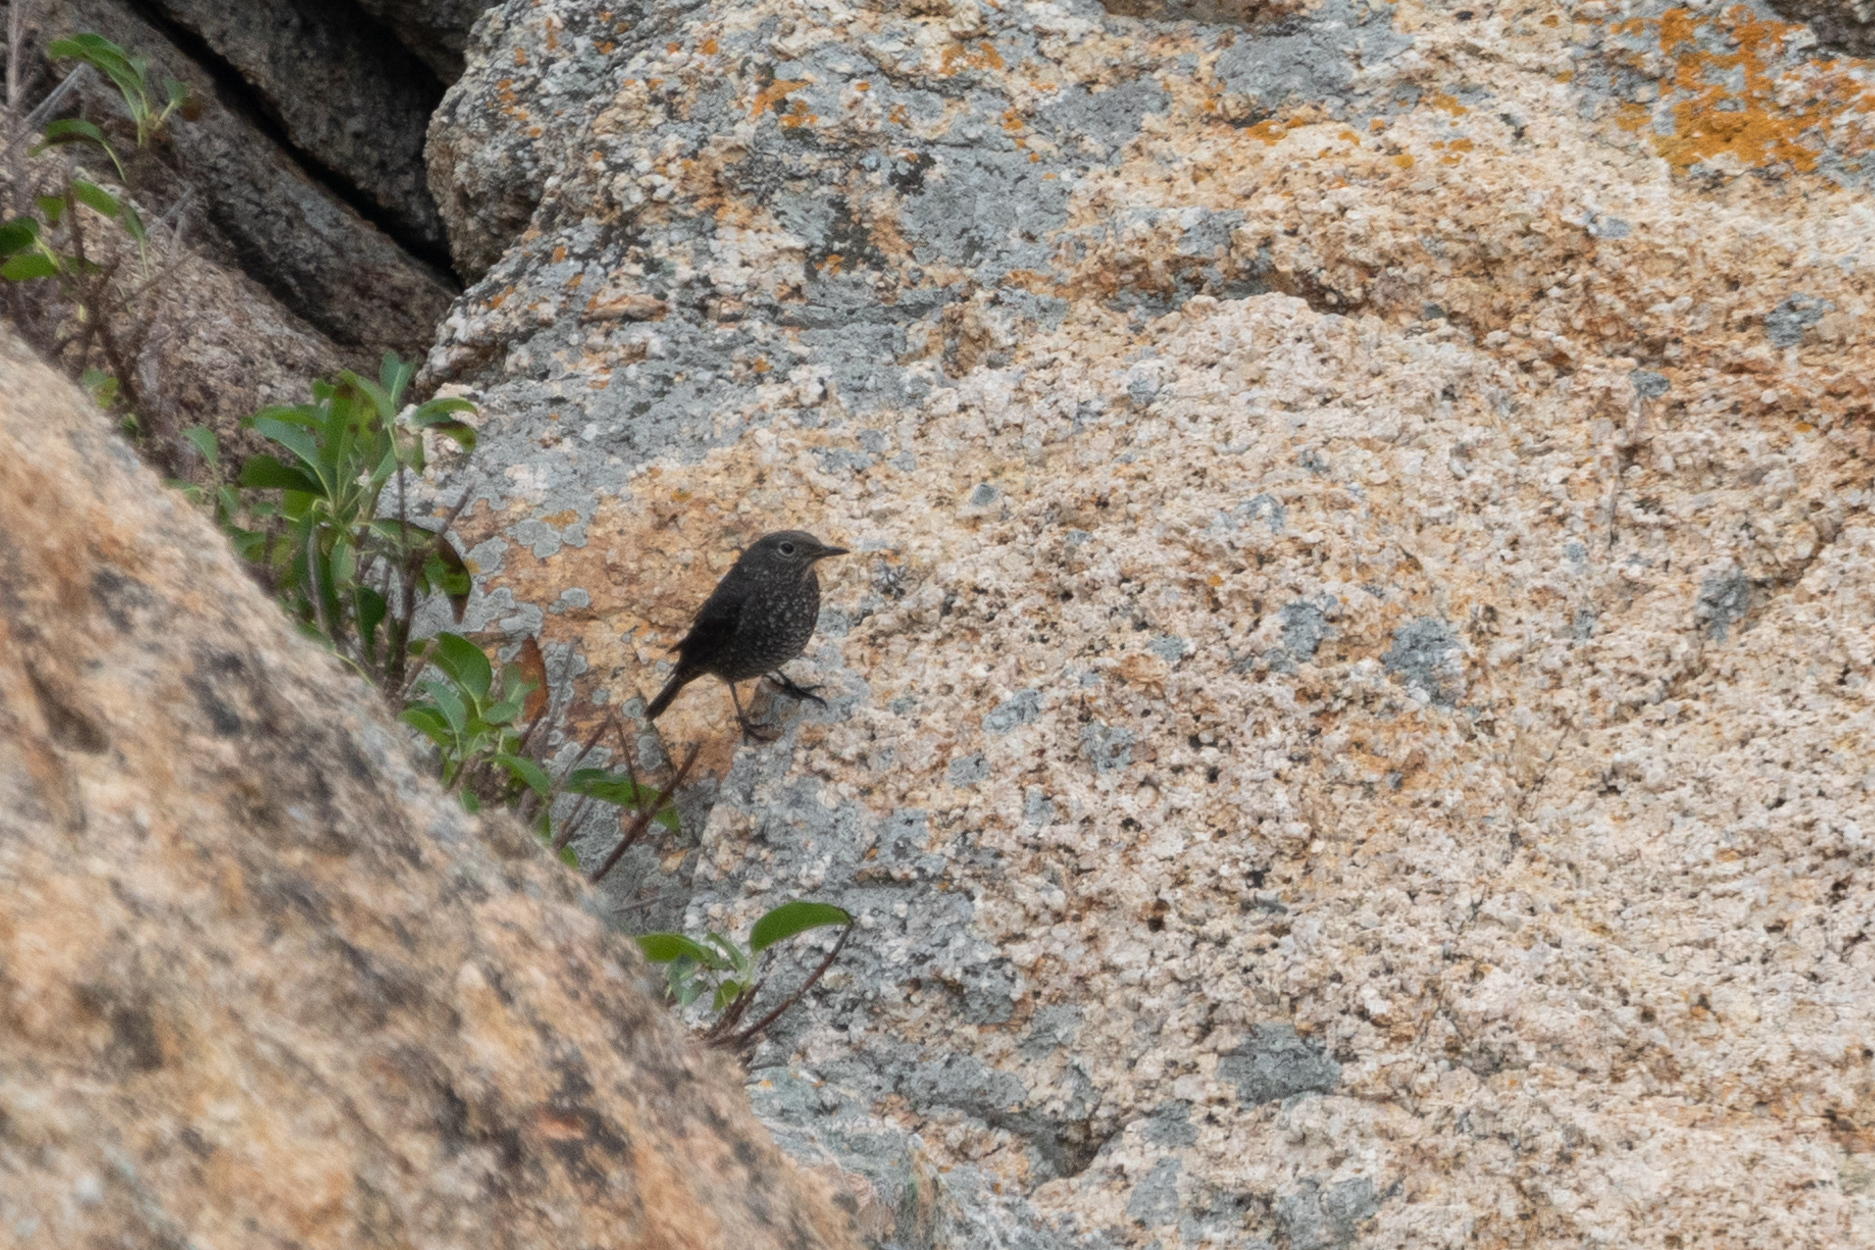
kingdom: Animalia
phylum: Chordata
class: Aves
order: Passeriformes
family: Muscicapidae
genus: Monticola
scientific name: Monticola solitarius
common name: Blue rock thrush
